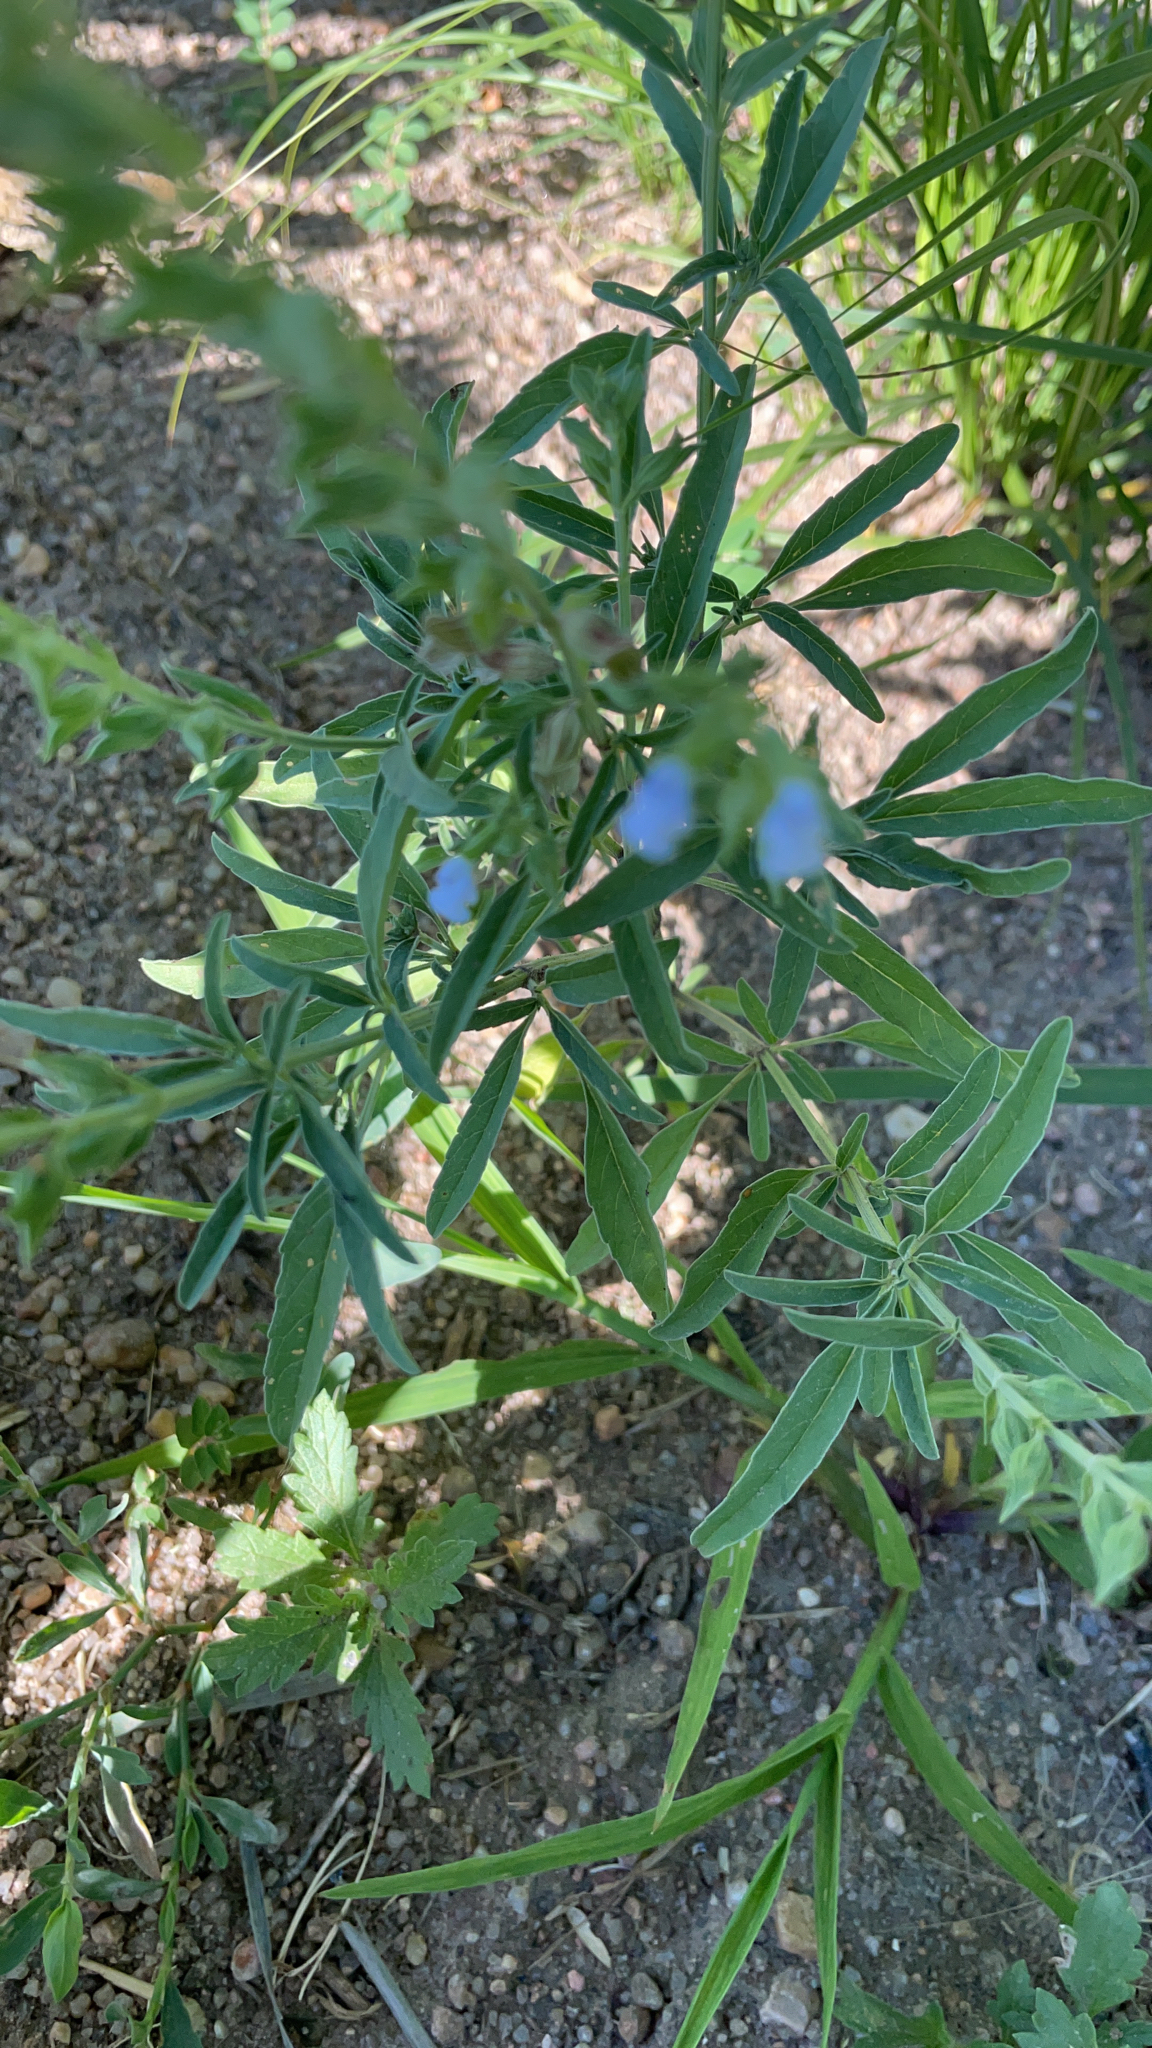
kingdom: Plantae
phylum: Tracheophyta
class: Magnoliopsida
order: Lamiales
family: Lamiaceae
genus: Salvia
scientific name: Salvia reflexa
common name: Mintweed
